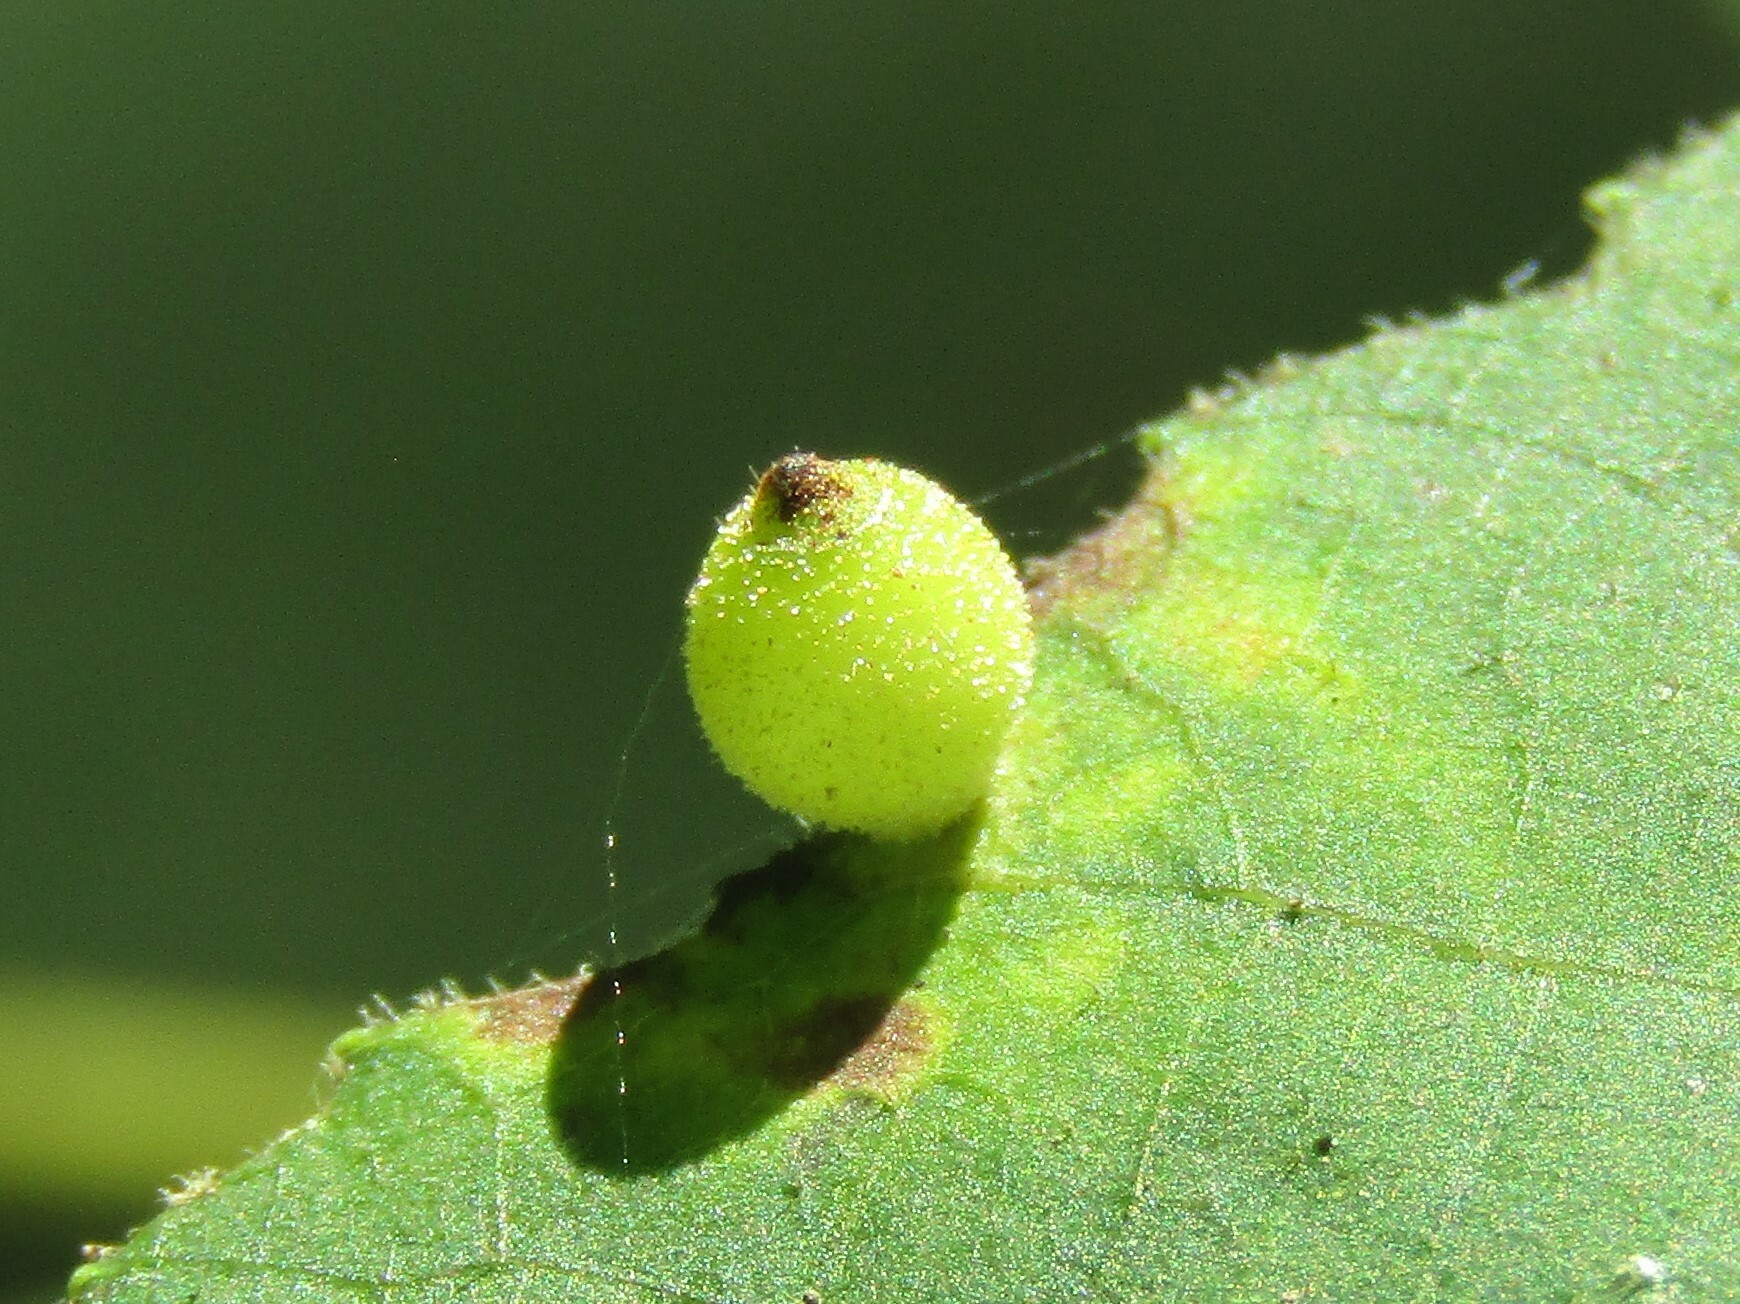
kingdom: Animalia
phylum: Arthropoda
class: Insecta
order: Diptera
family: Cecidomyiidae
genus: Caryomyia
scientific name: Caryomyia viscidolium
